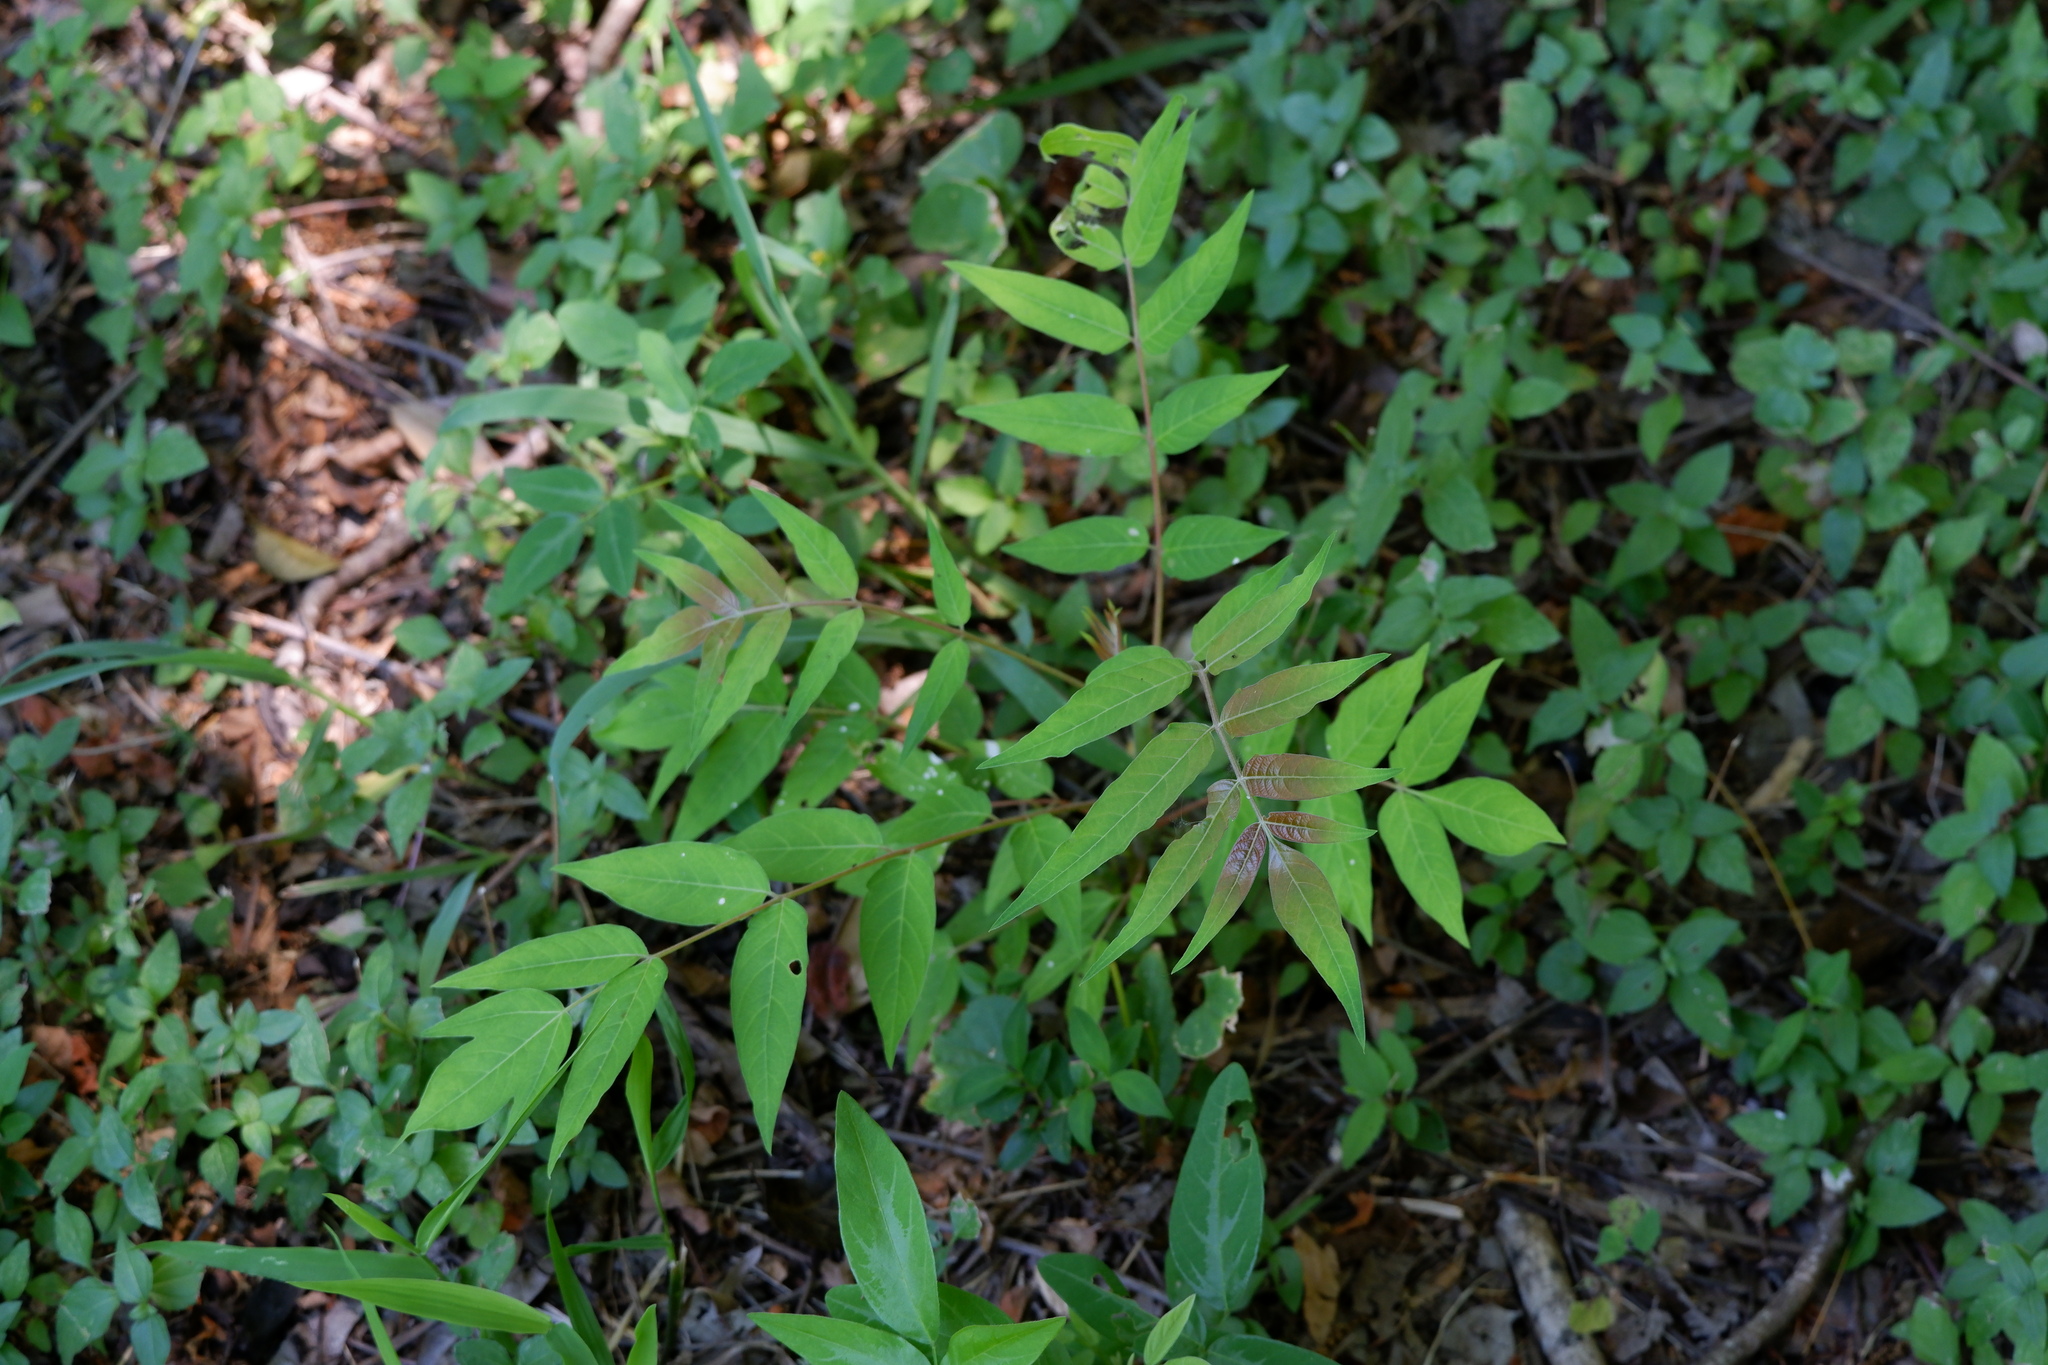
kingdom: Plantae
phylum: Tracheophyta
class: Magnoliopsida
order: Sapindales
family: Simaroubaceae
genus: Ailanthus
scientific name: Ailanthus altissima
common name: Tree-of-heaven
